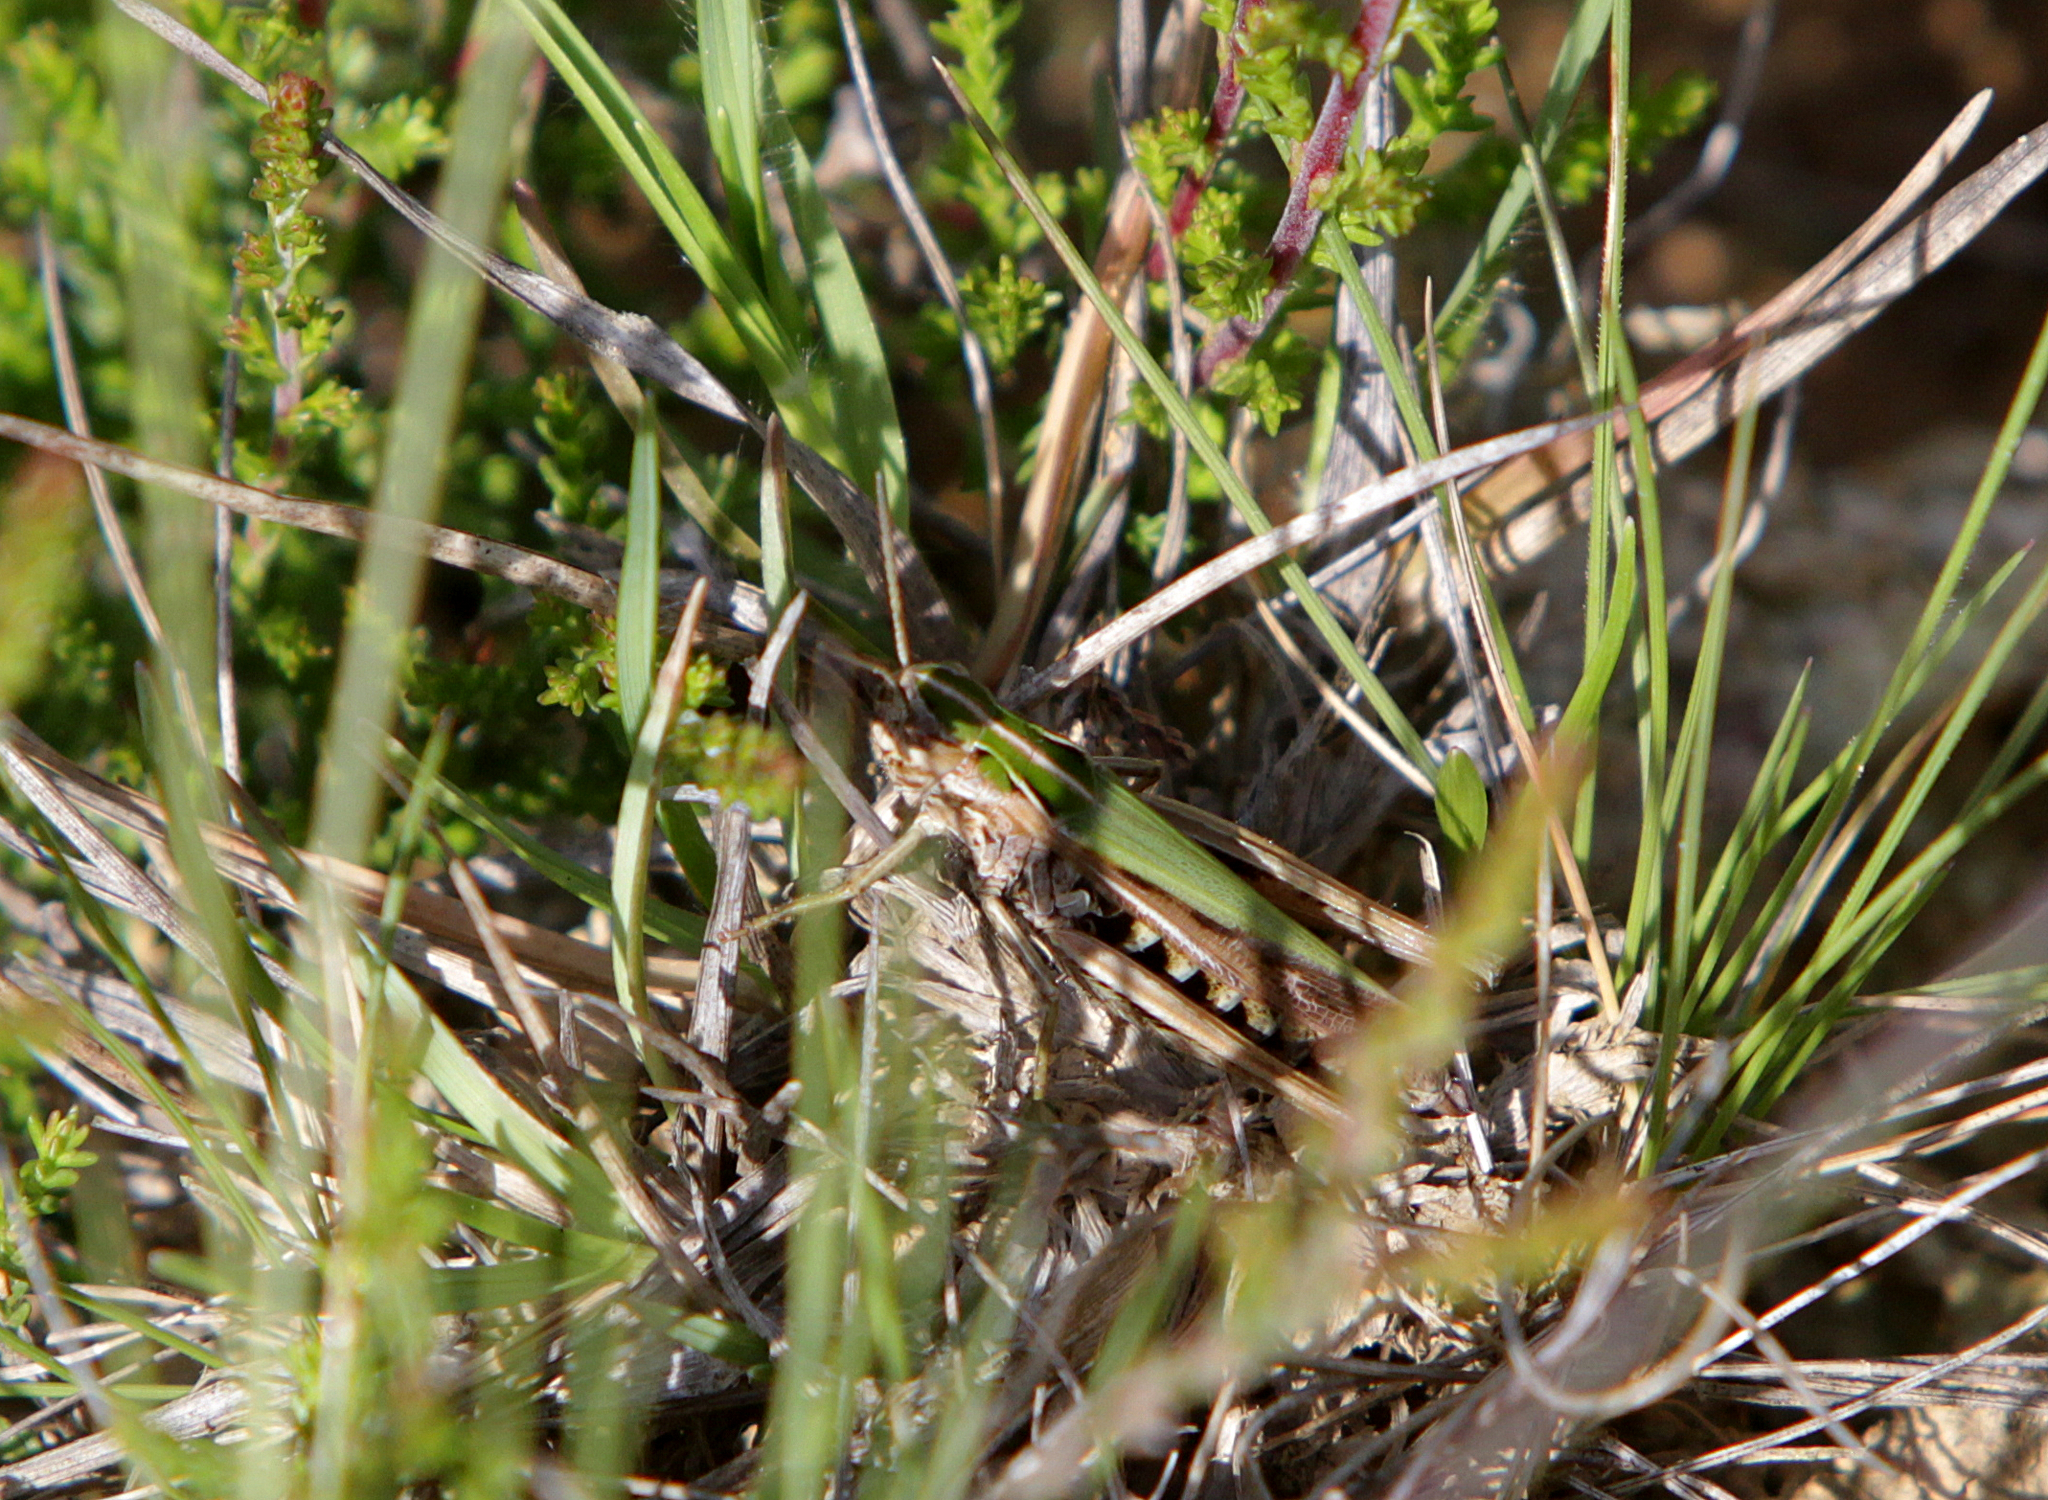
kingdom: Animalia
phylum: Arthropoda
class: Insecta
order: Orthoptera
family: Acrididae
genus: Omocestus
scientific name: Omocestus viridulus
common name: Common green grasshopper
